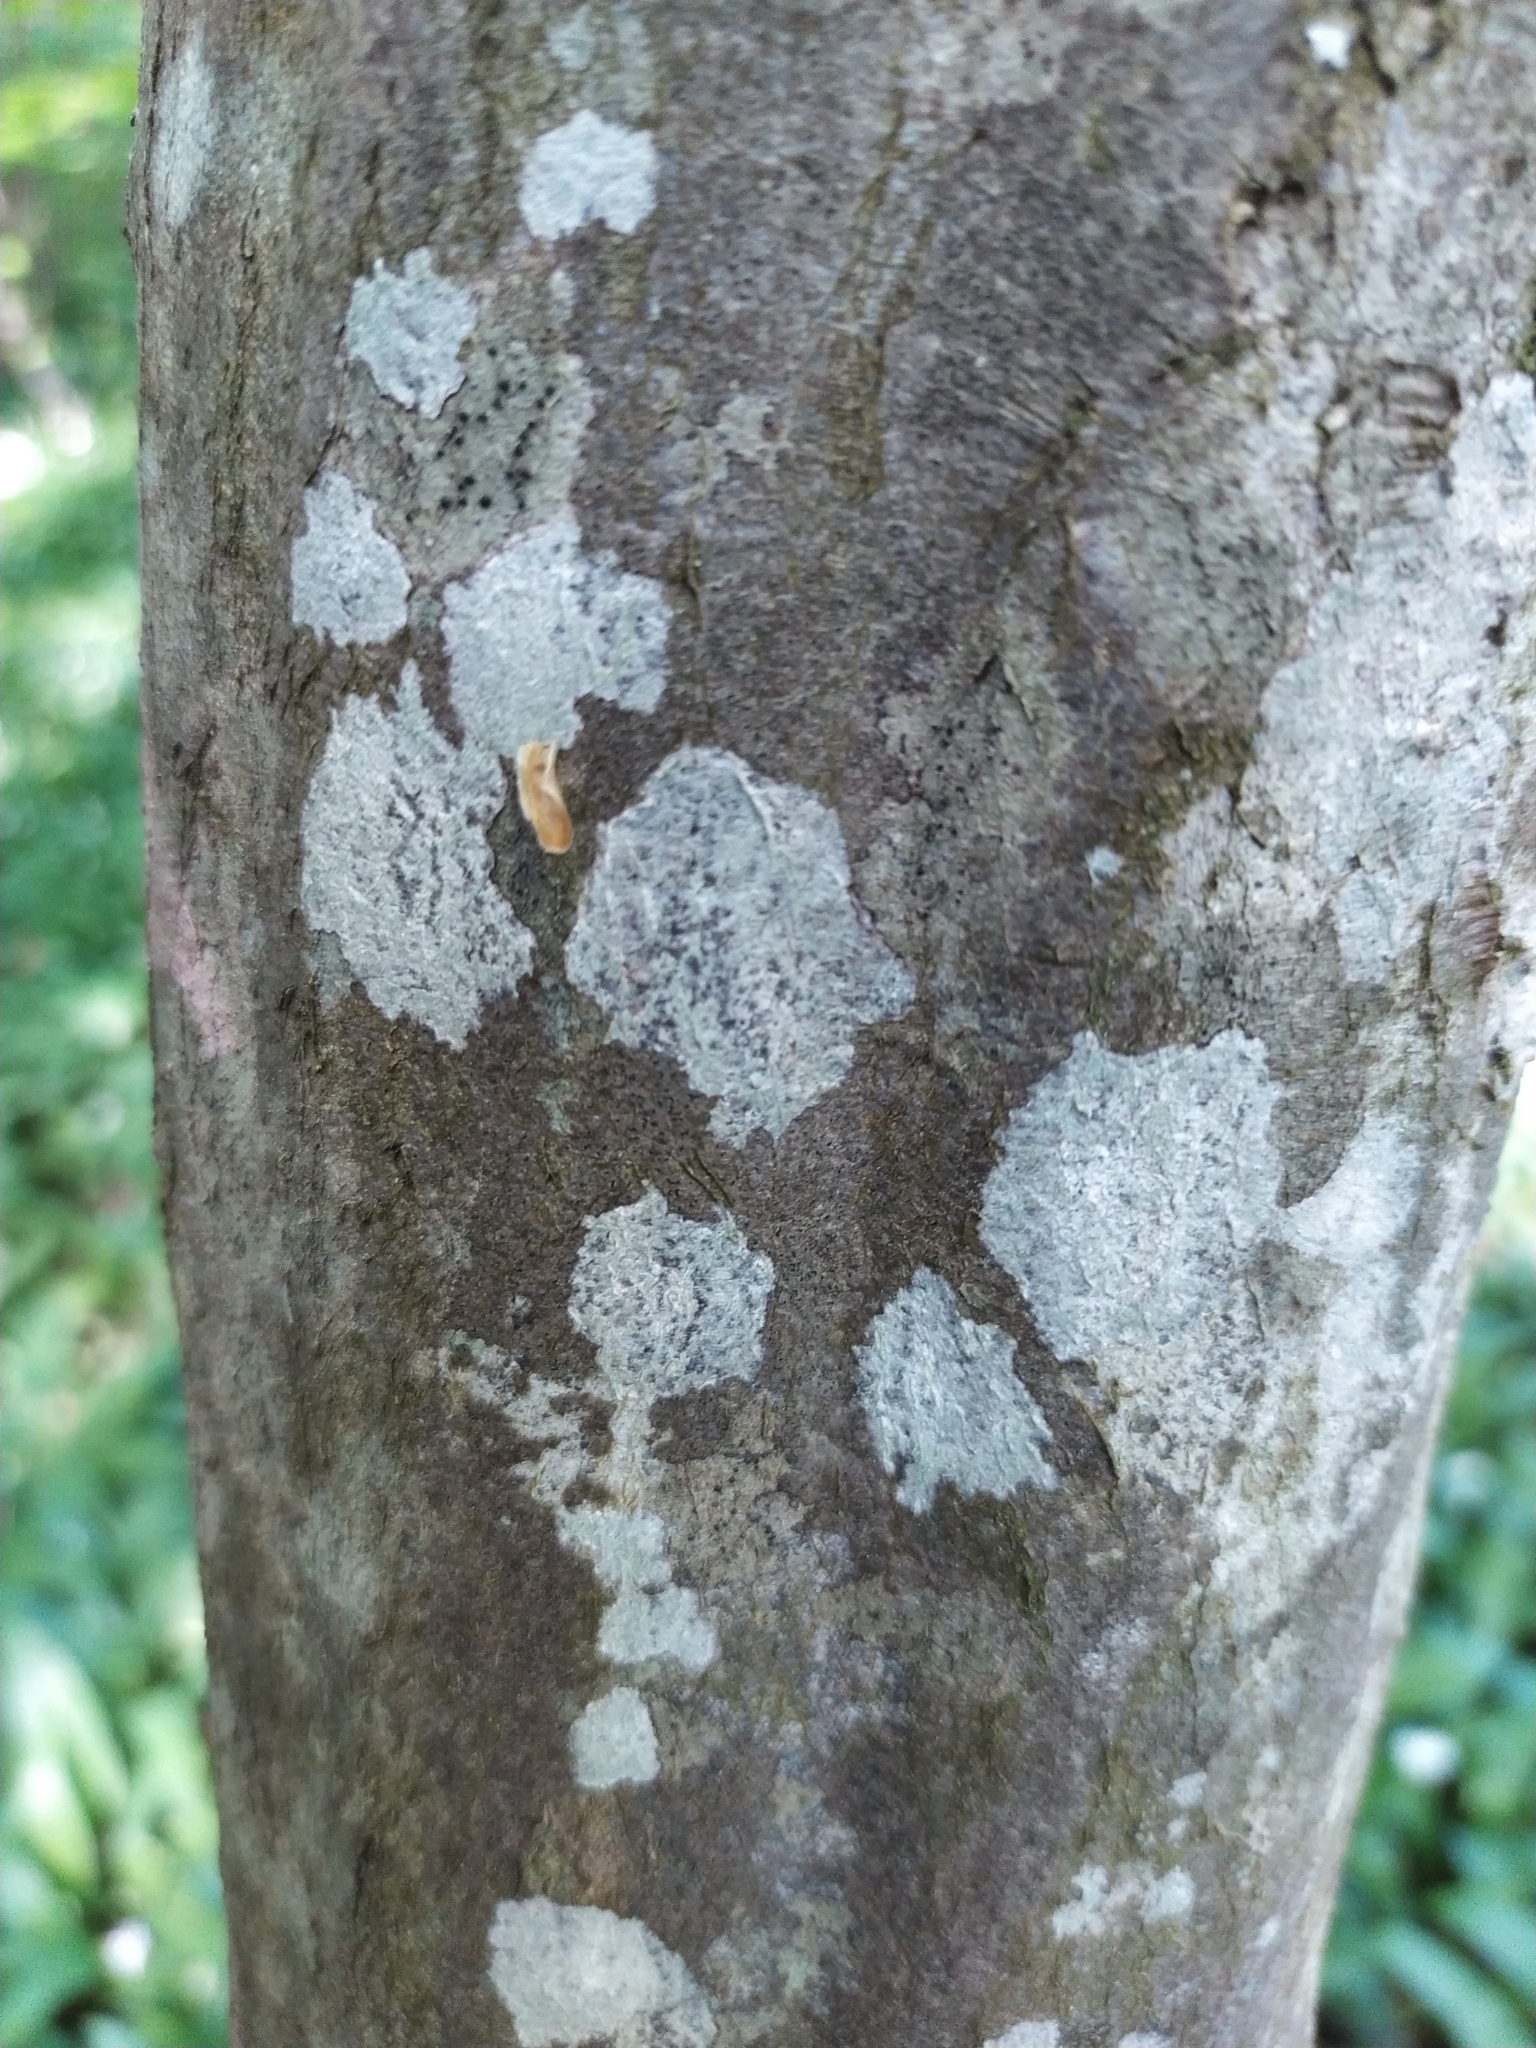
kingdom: Fungi
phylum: Ascomycota
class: Lecanoromycetes
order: Ostropales
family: Phlyctidaceae
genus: Phlyctis
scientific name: Phlyctis argena
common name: Whitewash lichen
